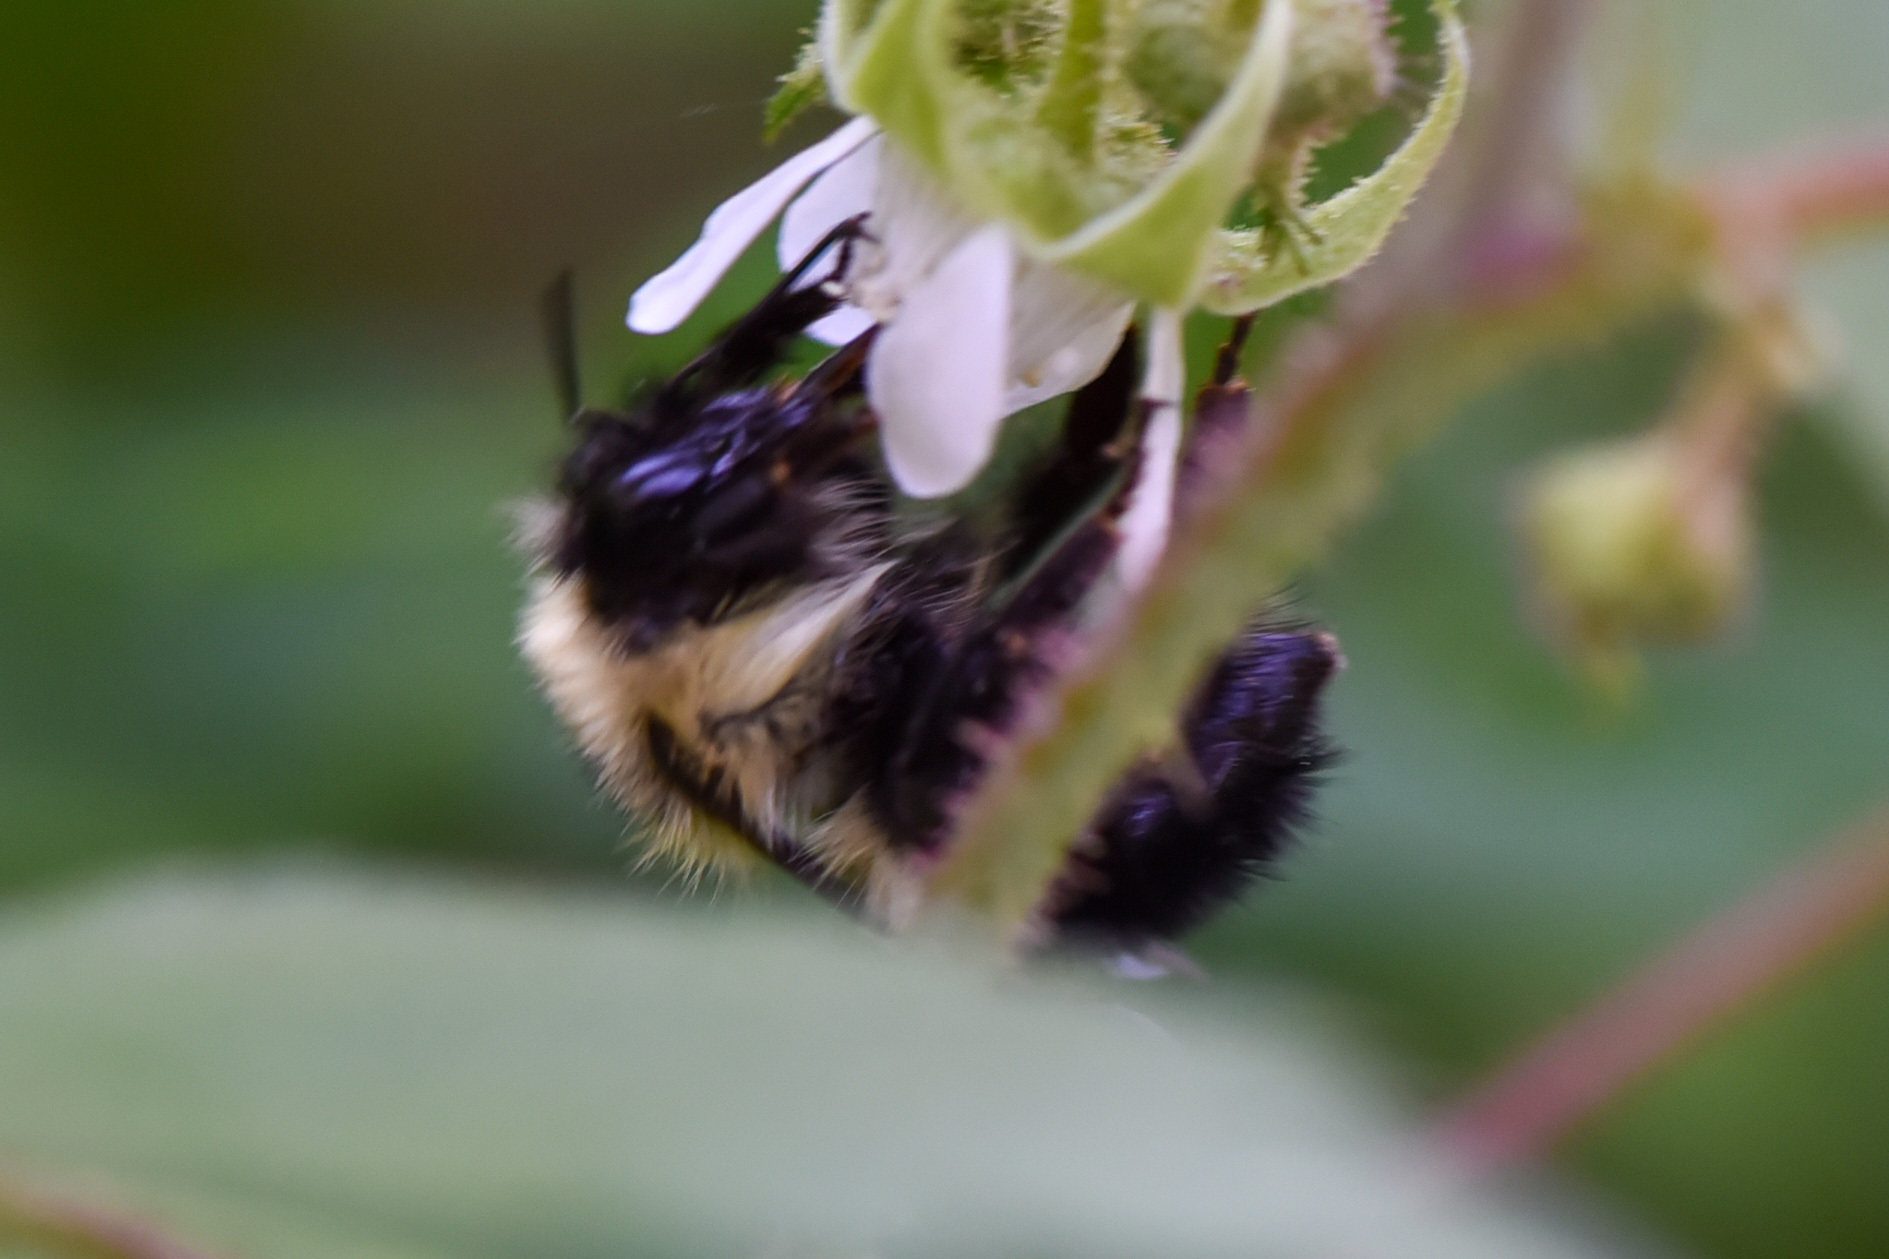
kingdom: Animalia
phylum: Arthropoda
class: Insecta
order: Hymenoptera
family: Apidae
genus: Bombus
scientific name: Bombus vagans
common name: Half-black bumble bee
